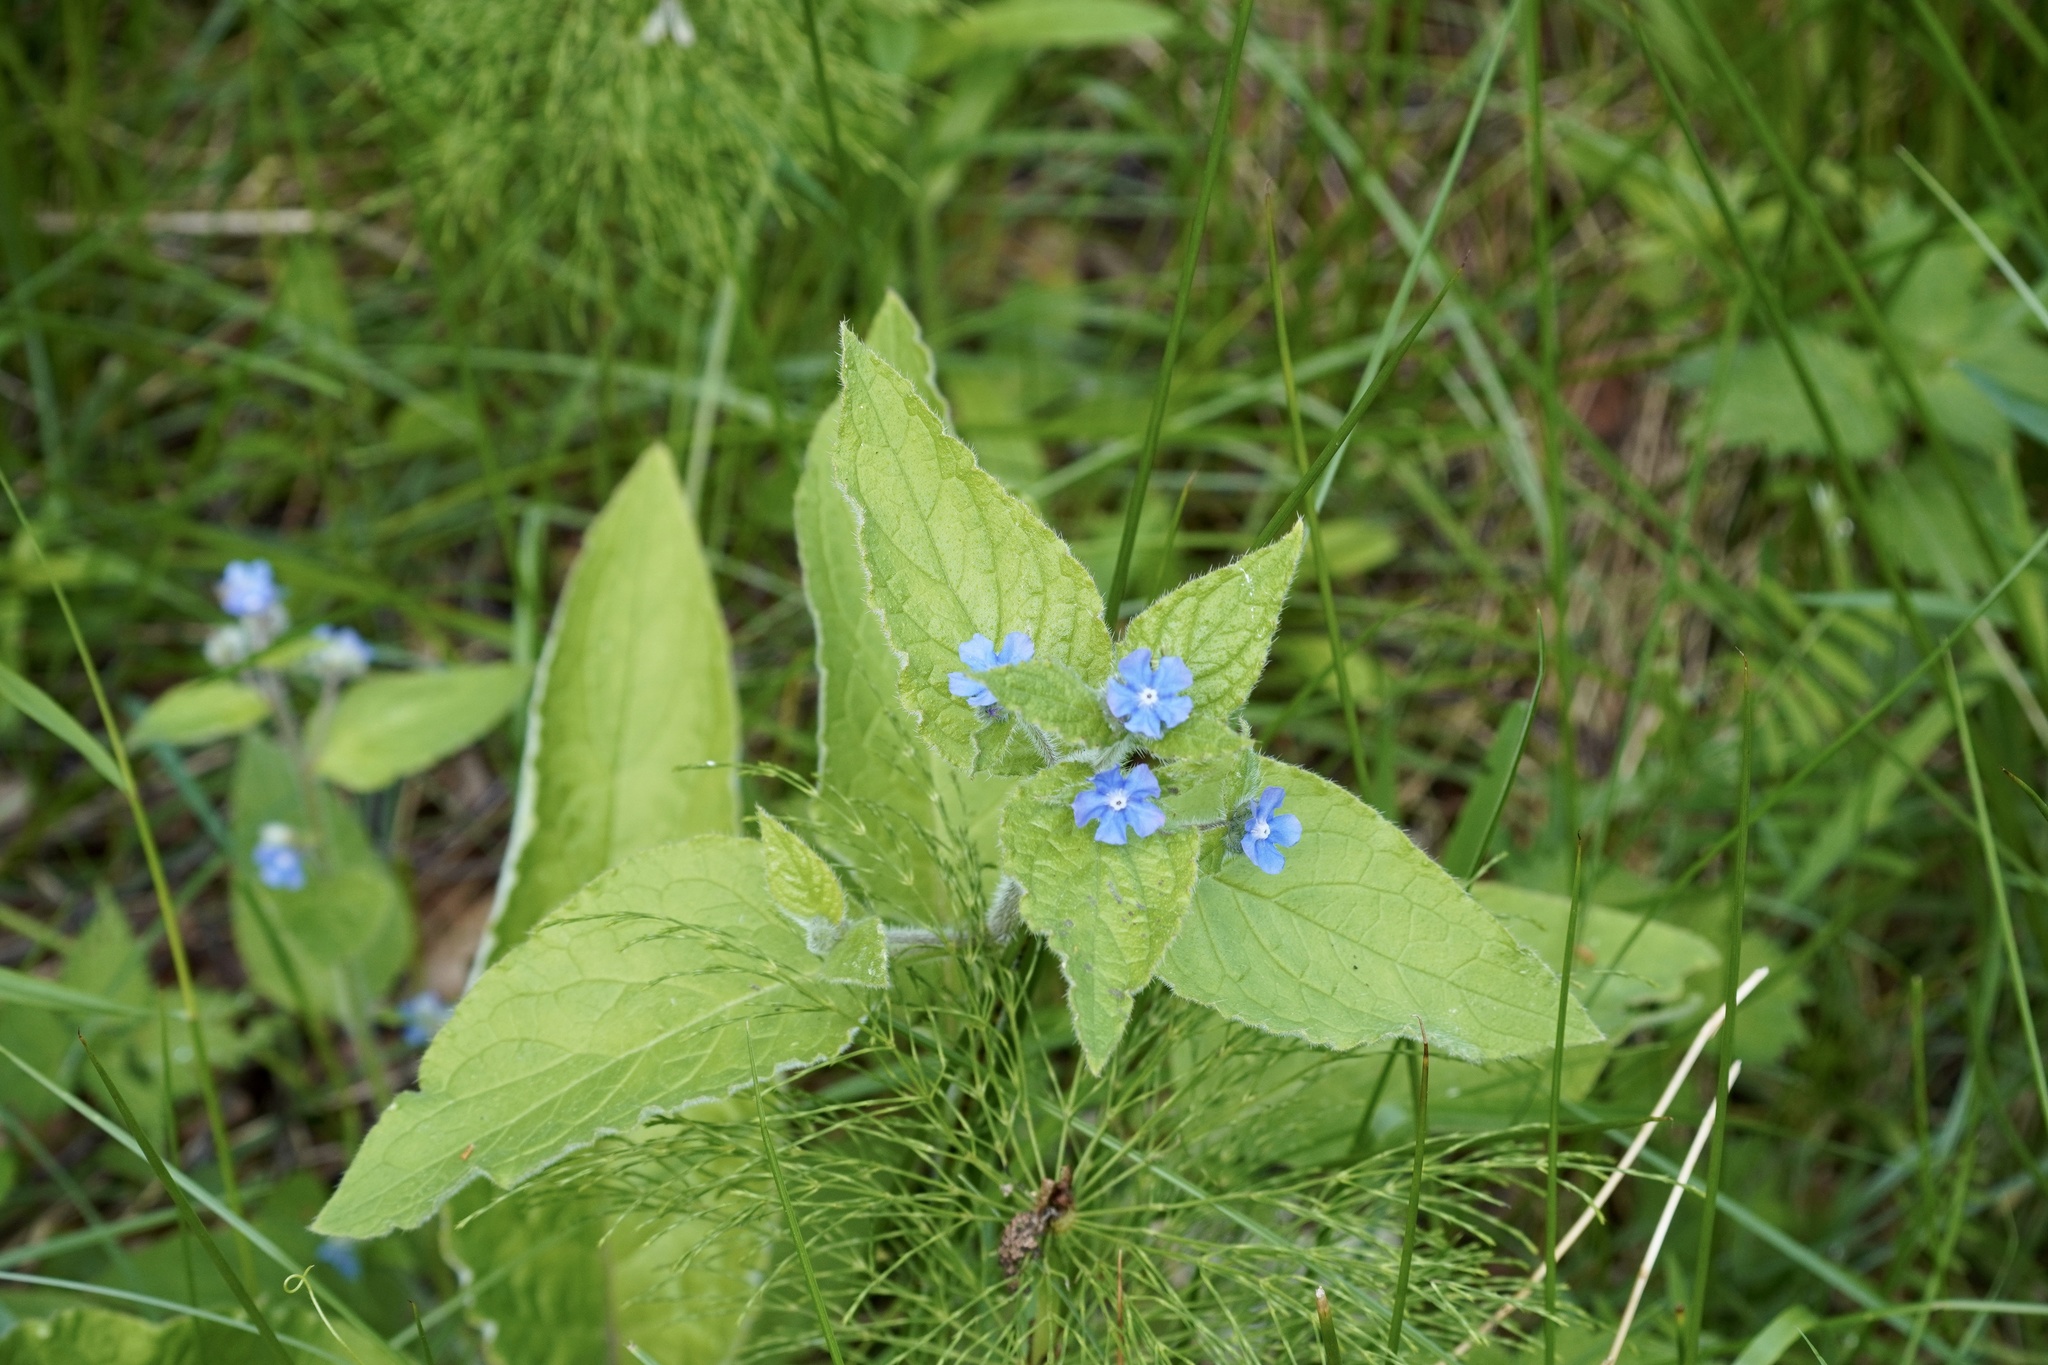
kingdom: Plantae
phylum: Tracheophyta
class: Magnoliopsida
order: Boraginales
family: Boraginaceae
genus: Pentaglottis
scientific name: Pentaglottis sempervirens
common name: Green alkanet
